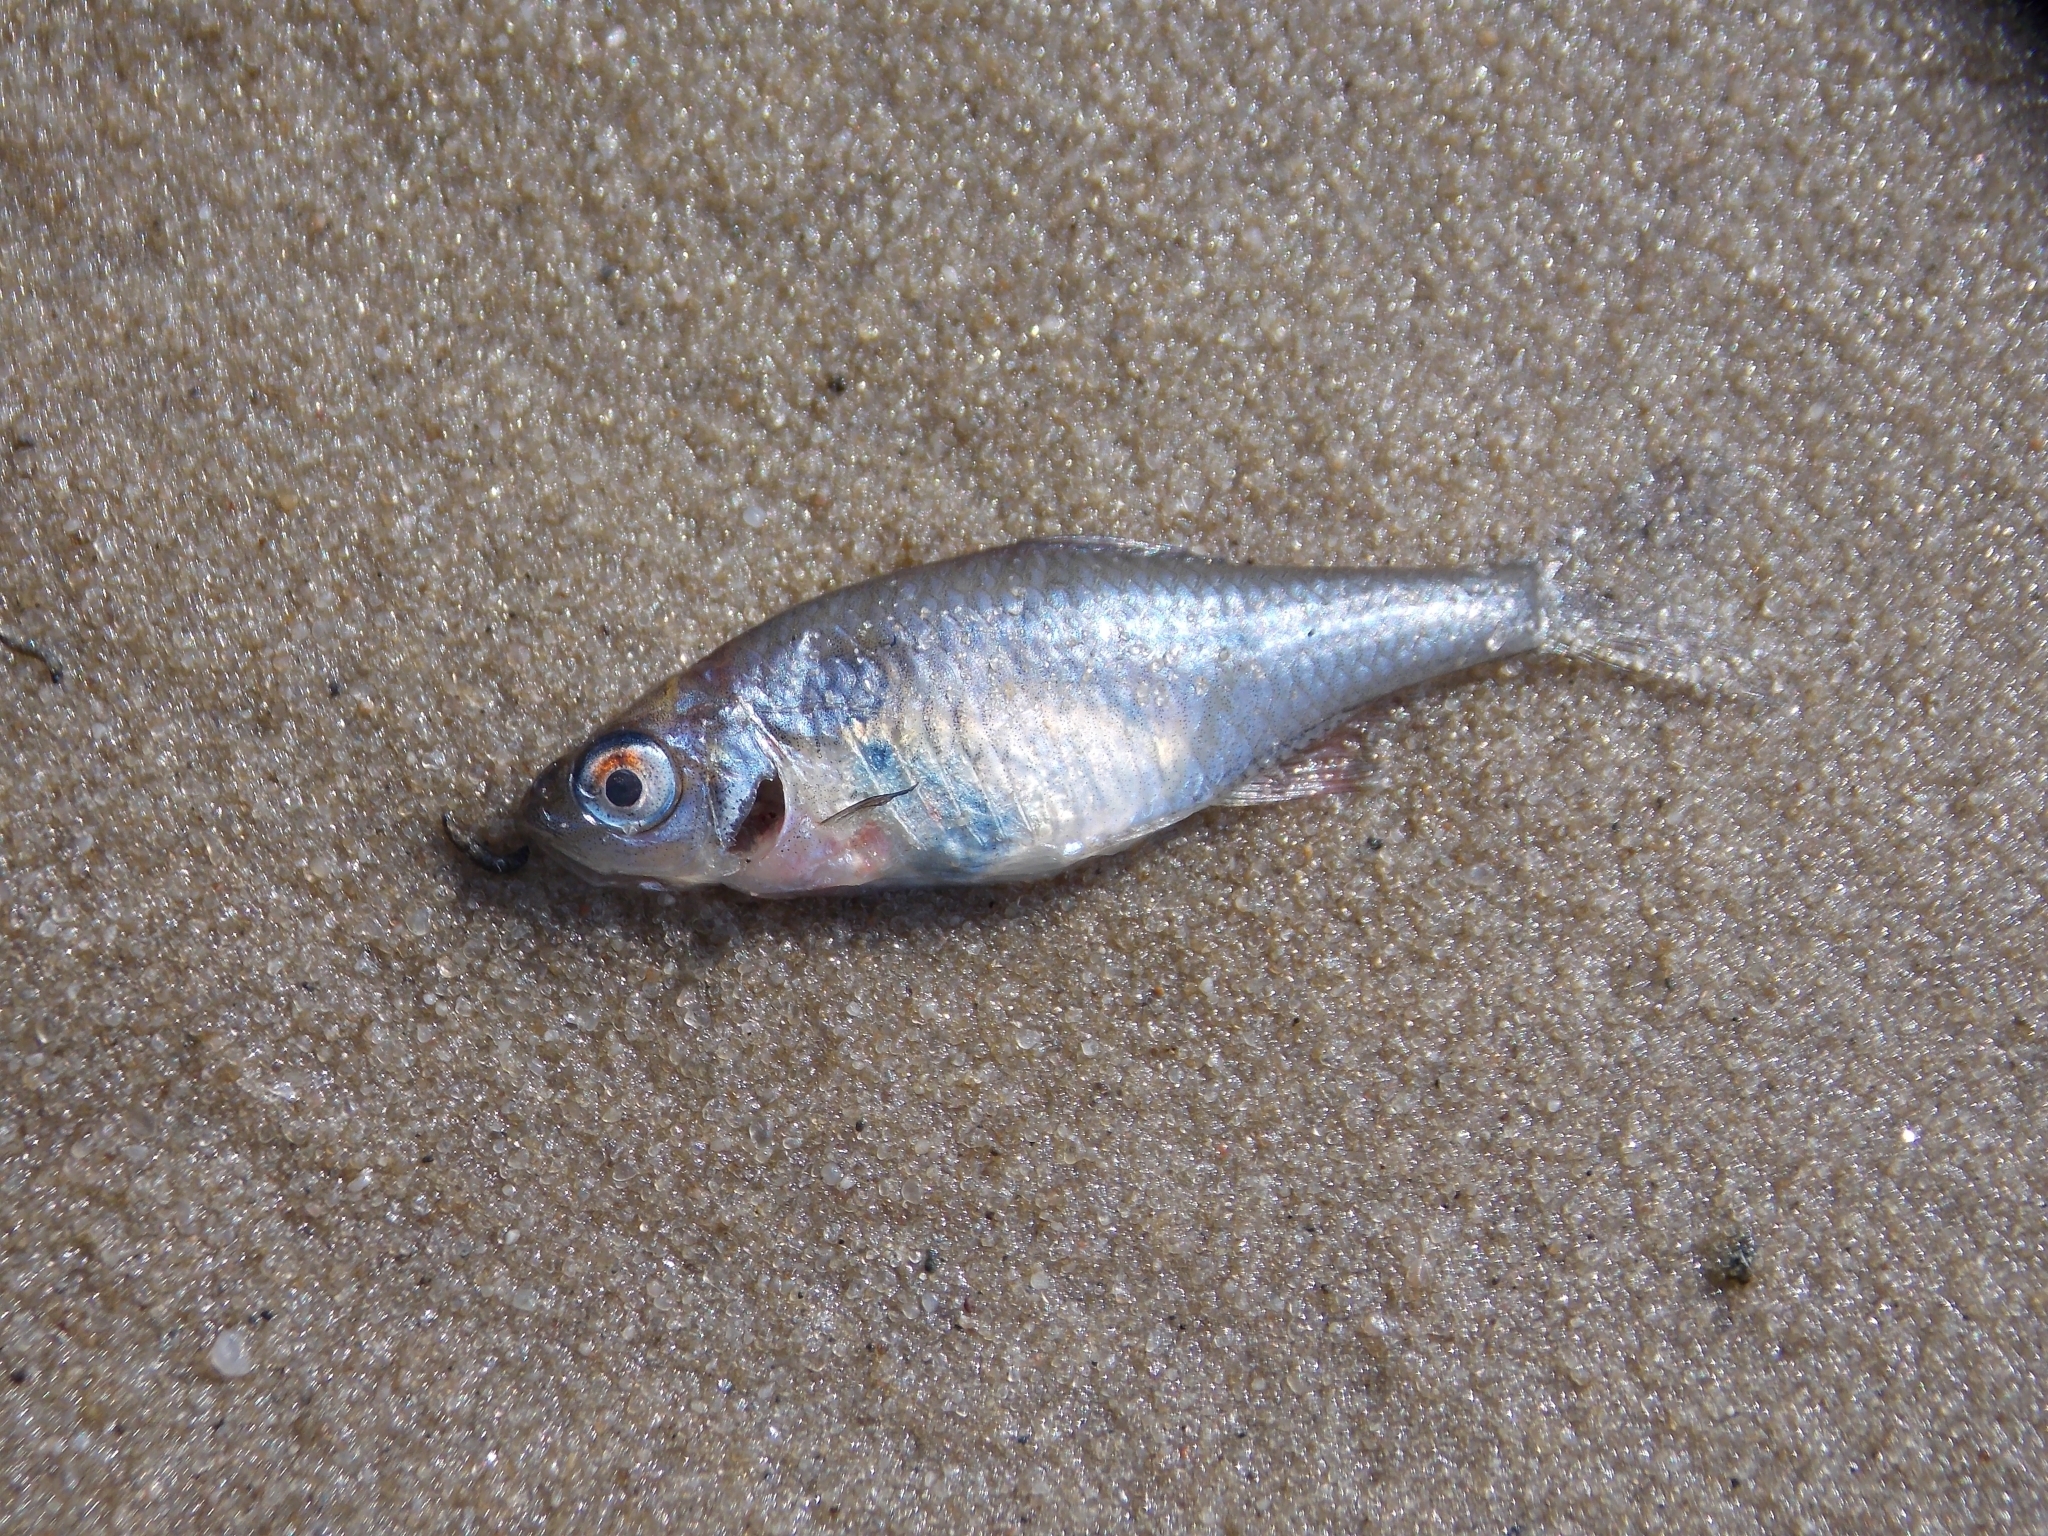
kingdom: Animalia
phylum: Chordata
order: Cypriniformes
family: Cyprinidae
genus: Rhodeus
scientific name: Rhodeus amarus
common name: Bitterling
